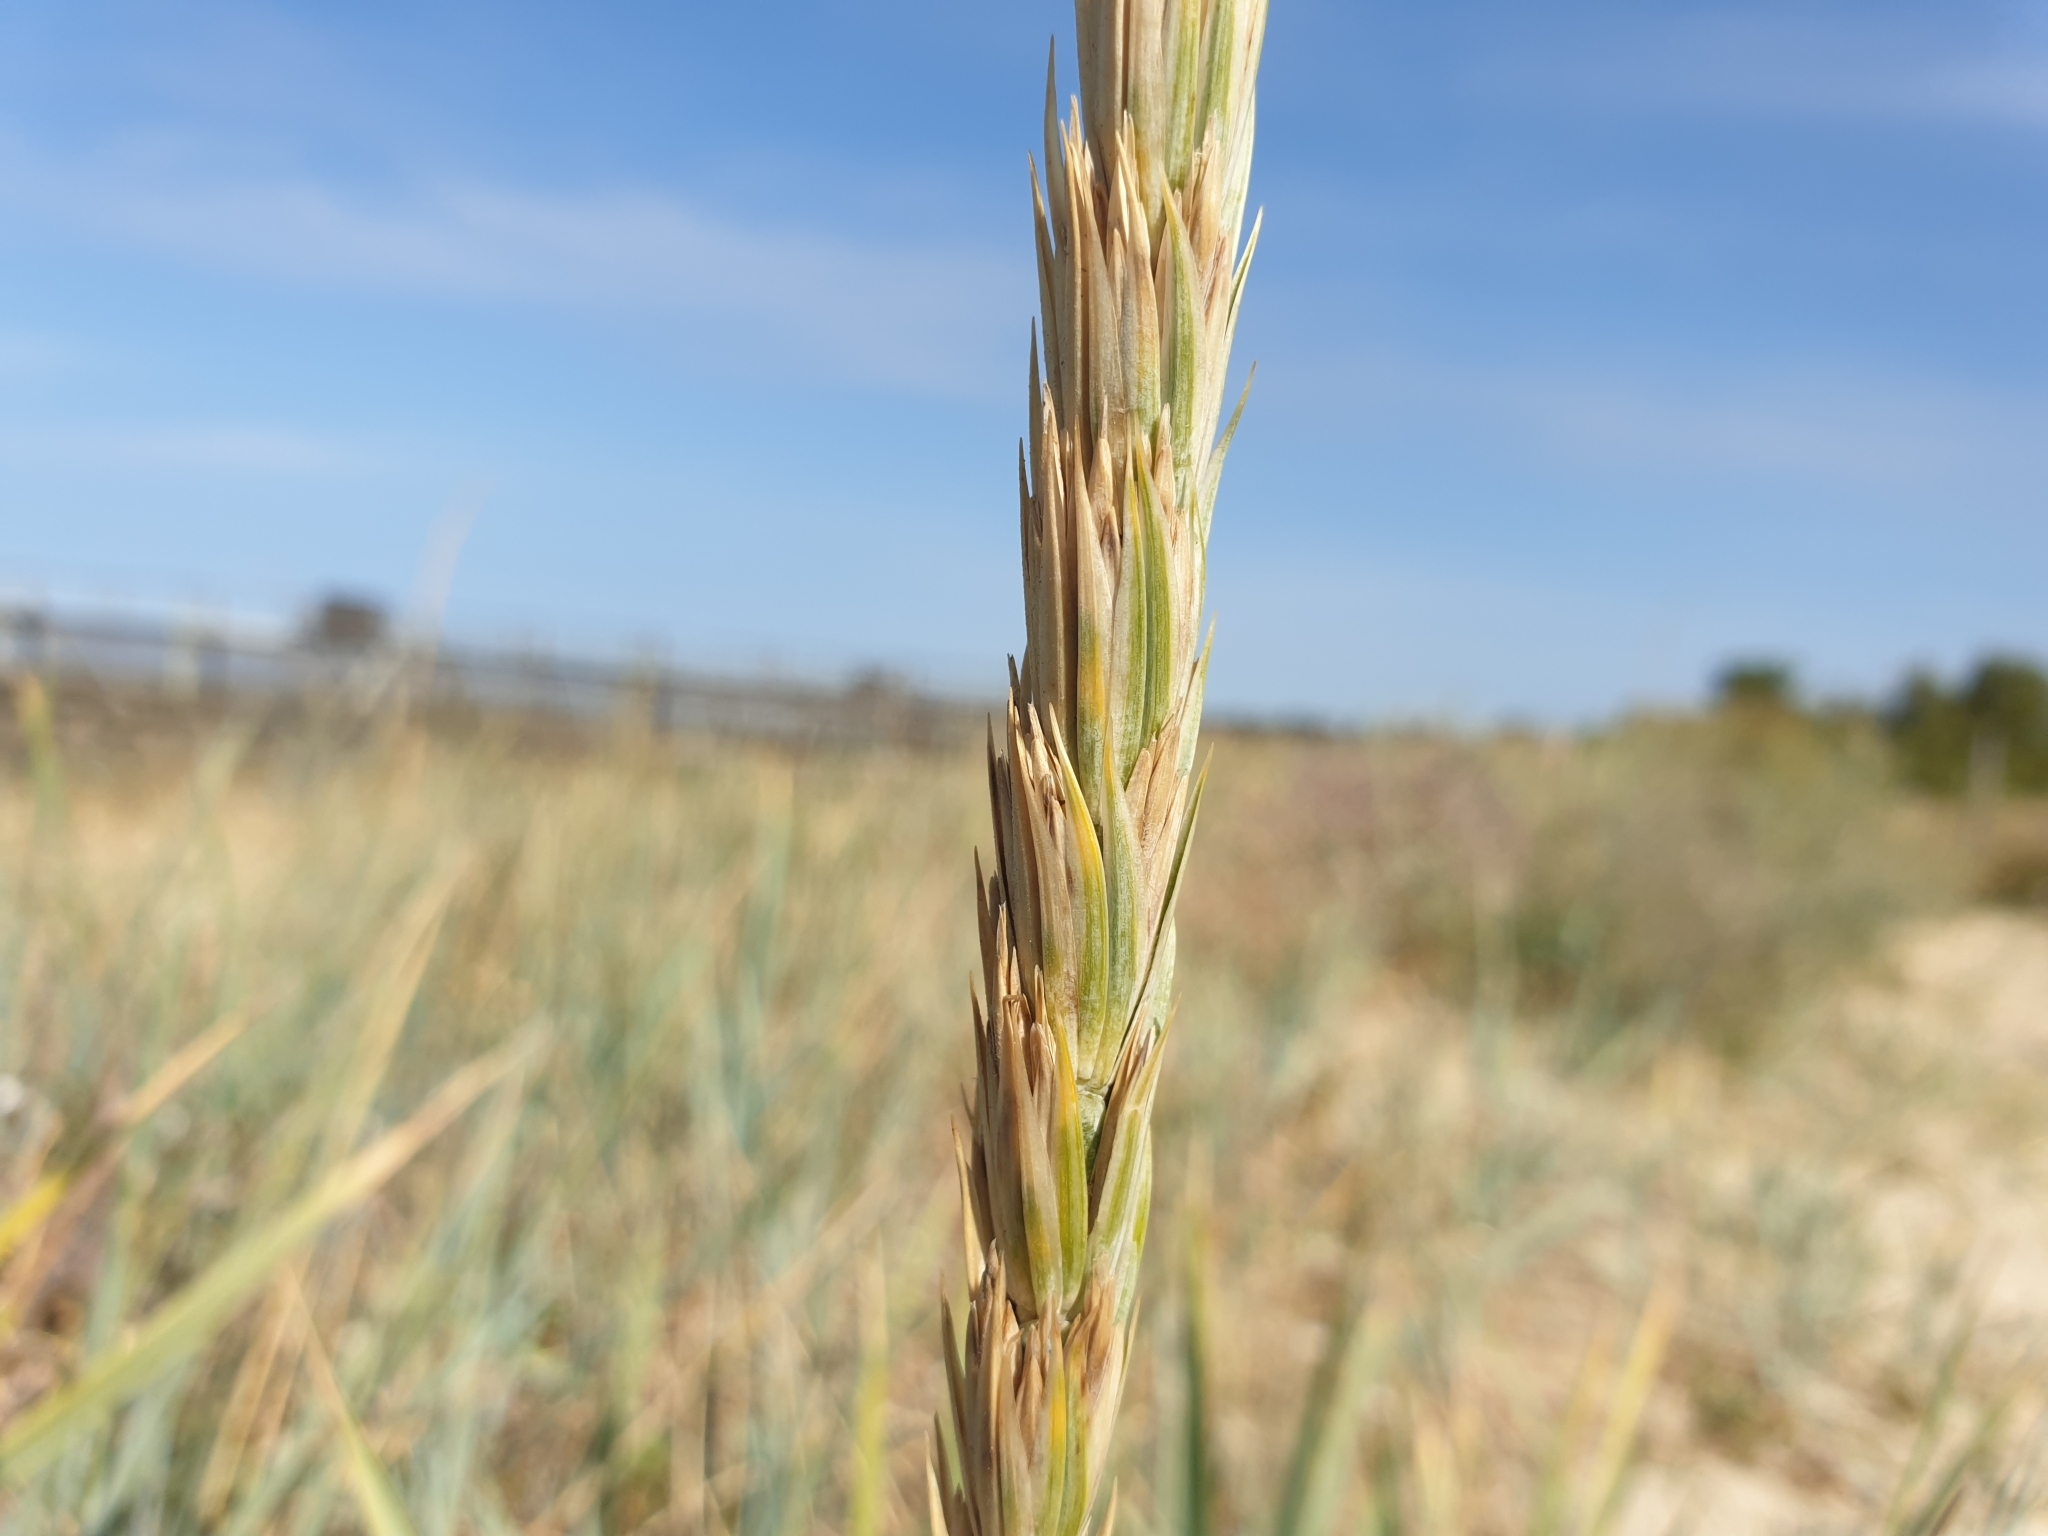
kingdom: Plantae
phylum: Tracheophyta
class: Liliopsida
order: Poales
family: Poaceae
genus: Leymus
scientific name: Leymus arenarius
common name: Lyme-grass
